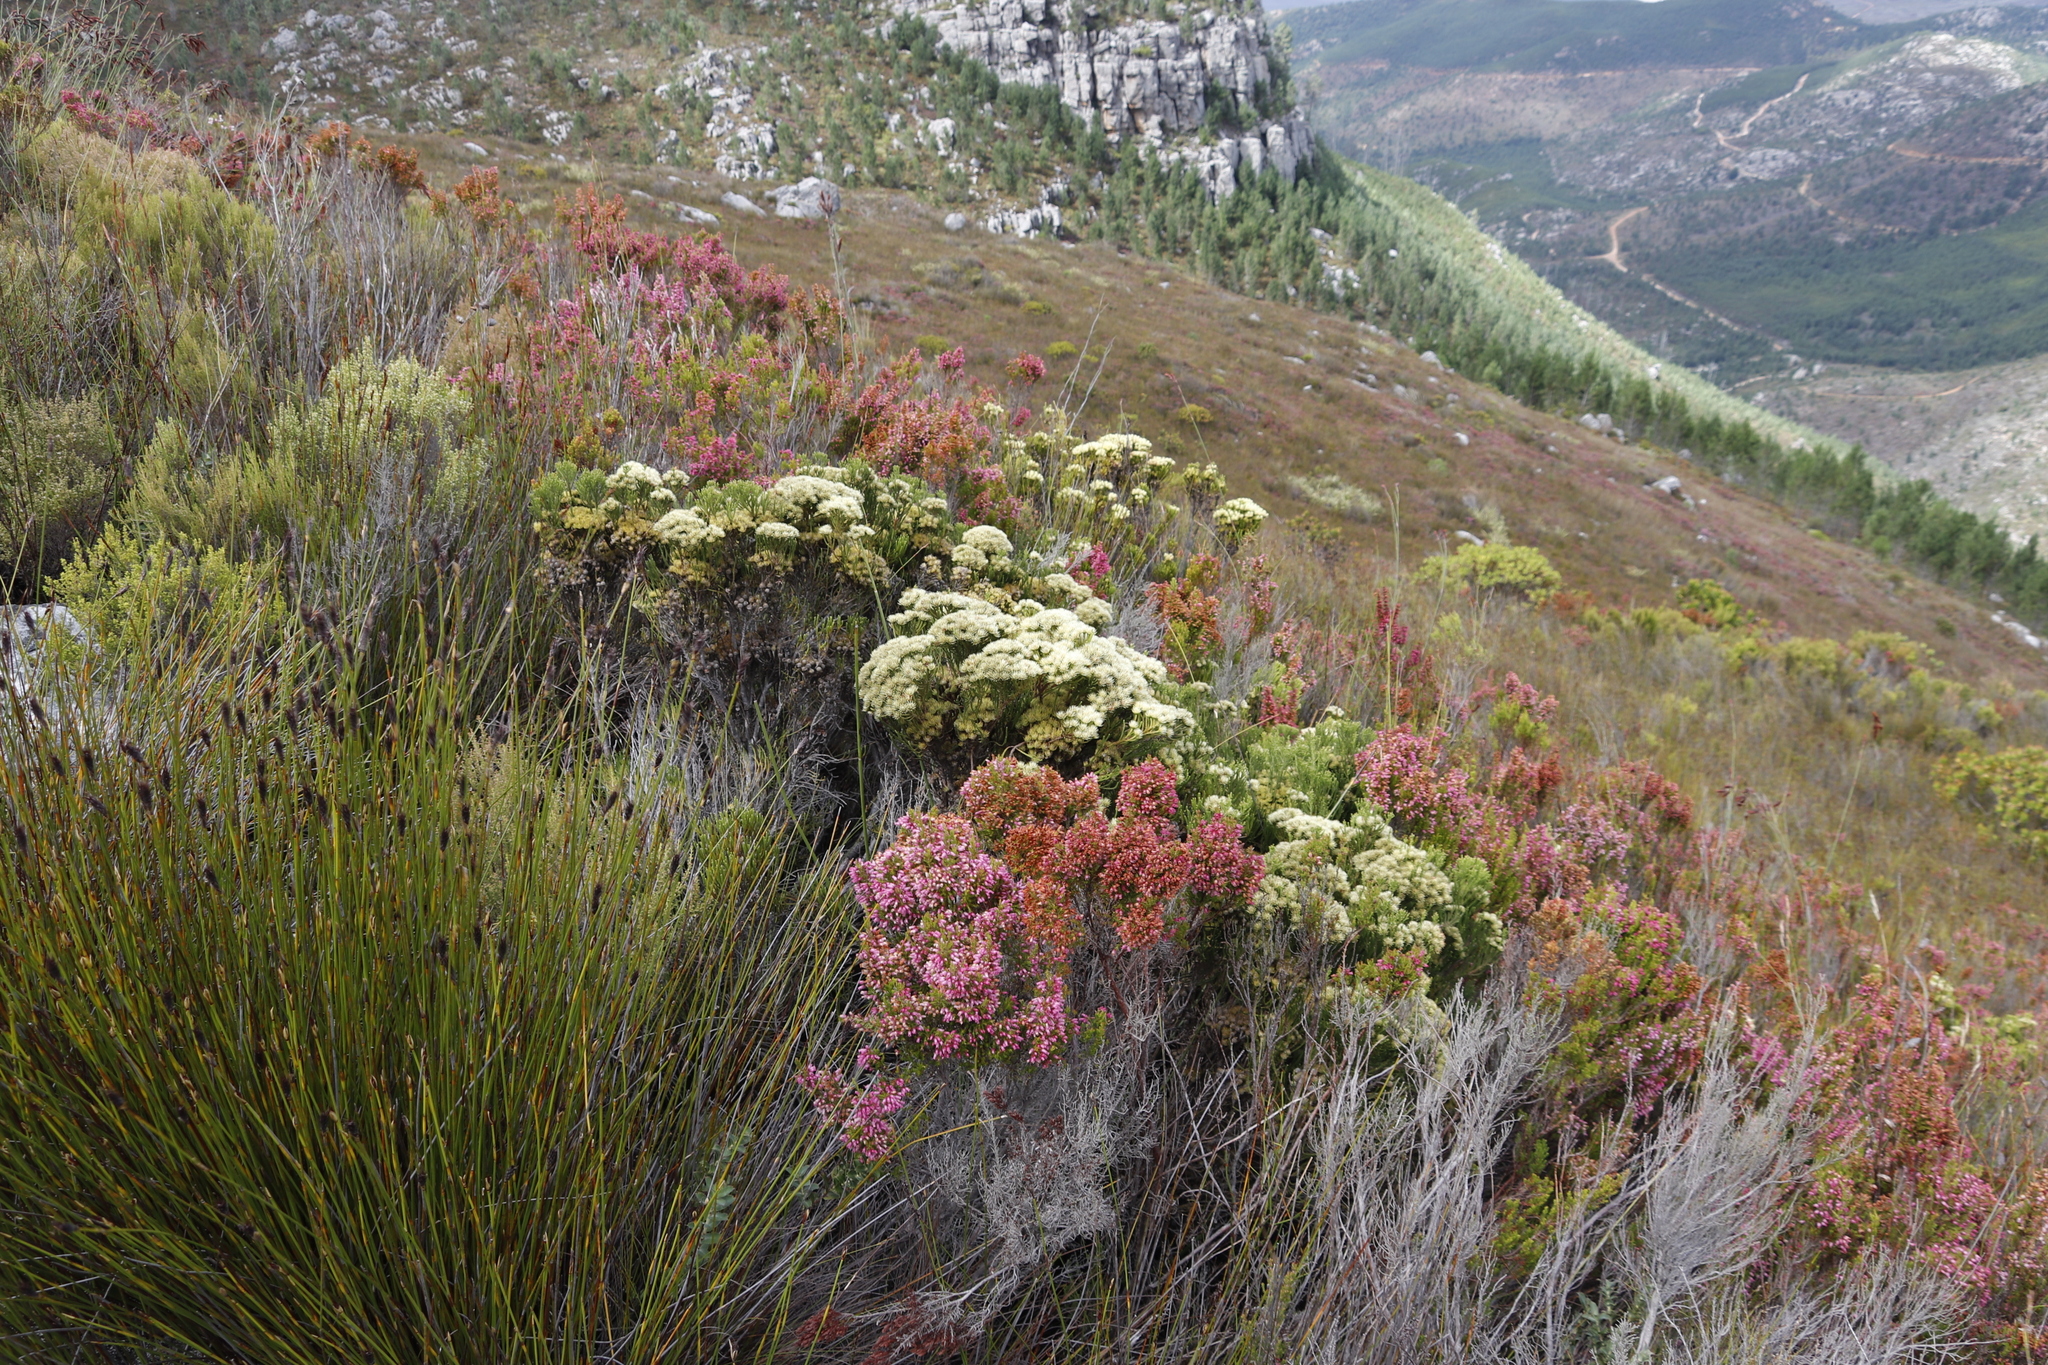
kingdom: Plantae
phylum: Tracheophyta
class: Magnoliopsida
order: Bruniales
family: Bruniaceae
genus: Brunia
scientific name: Brunia paleacea
